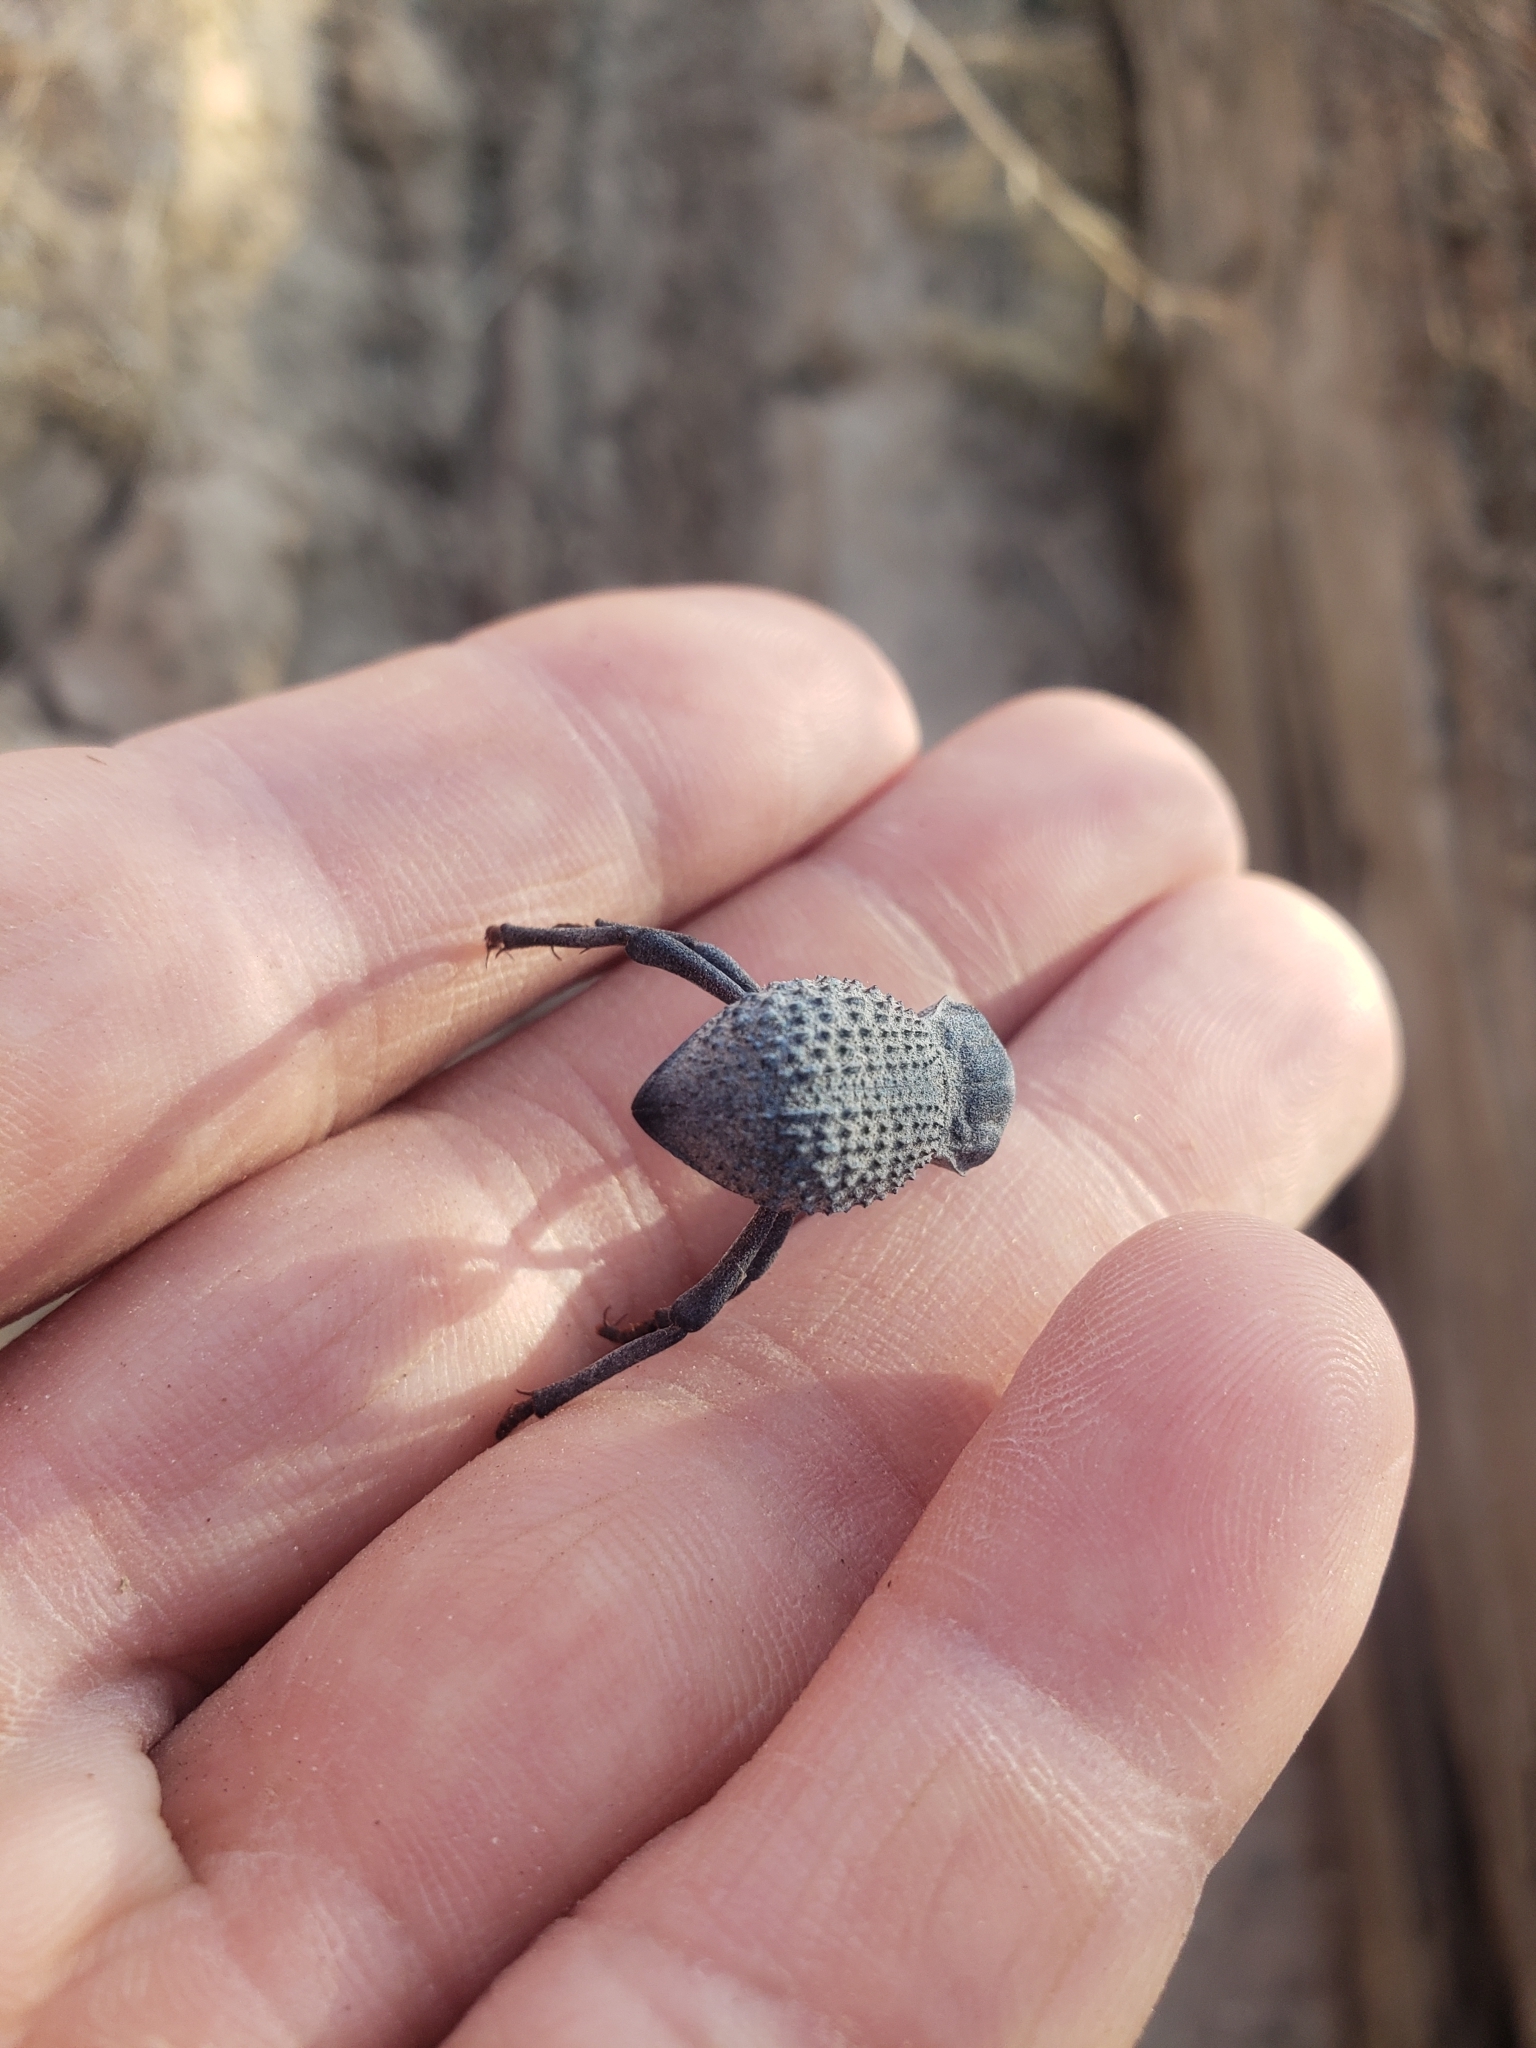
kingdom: Animalia
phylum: Arthropoda
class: Insecta
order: Coleoptera
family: Tenebrionidae
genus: Asbolus
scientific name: Asbolus verrucosus
